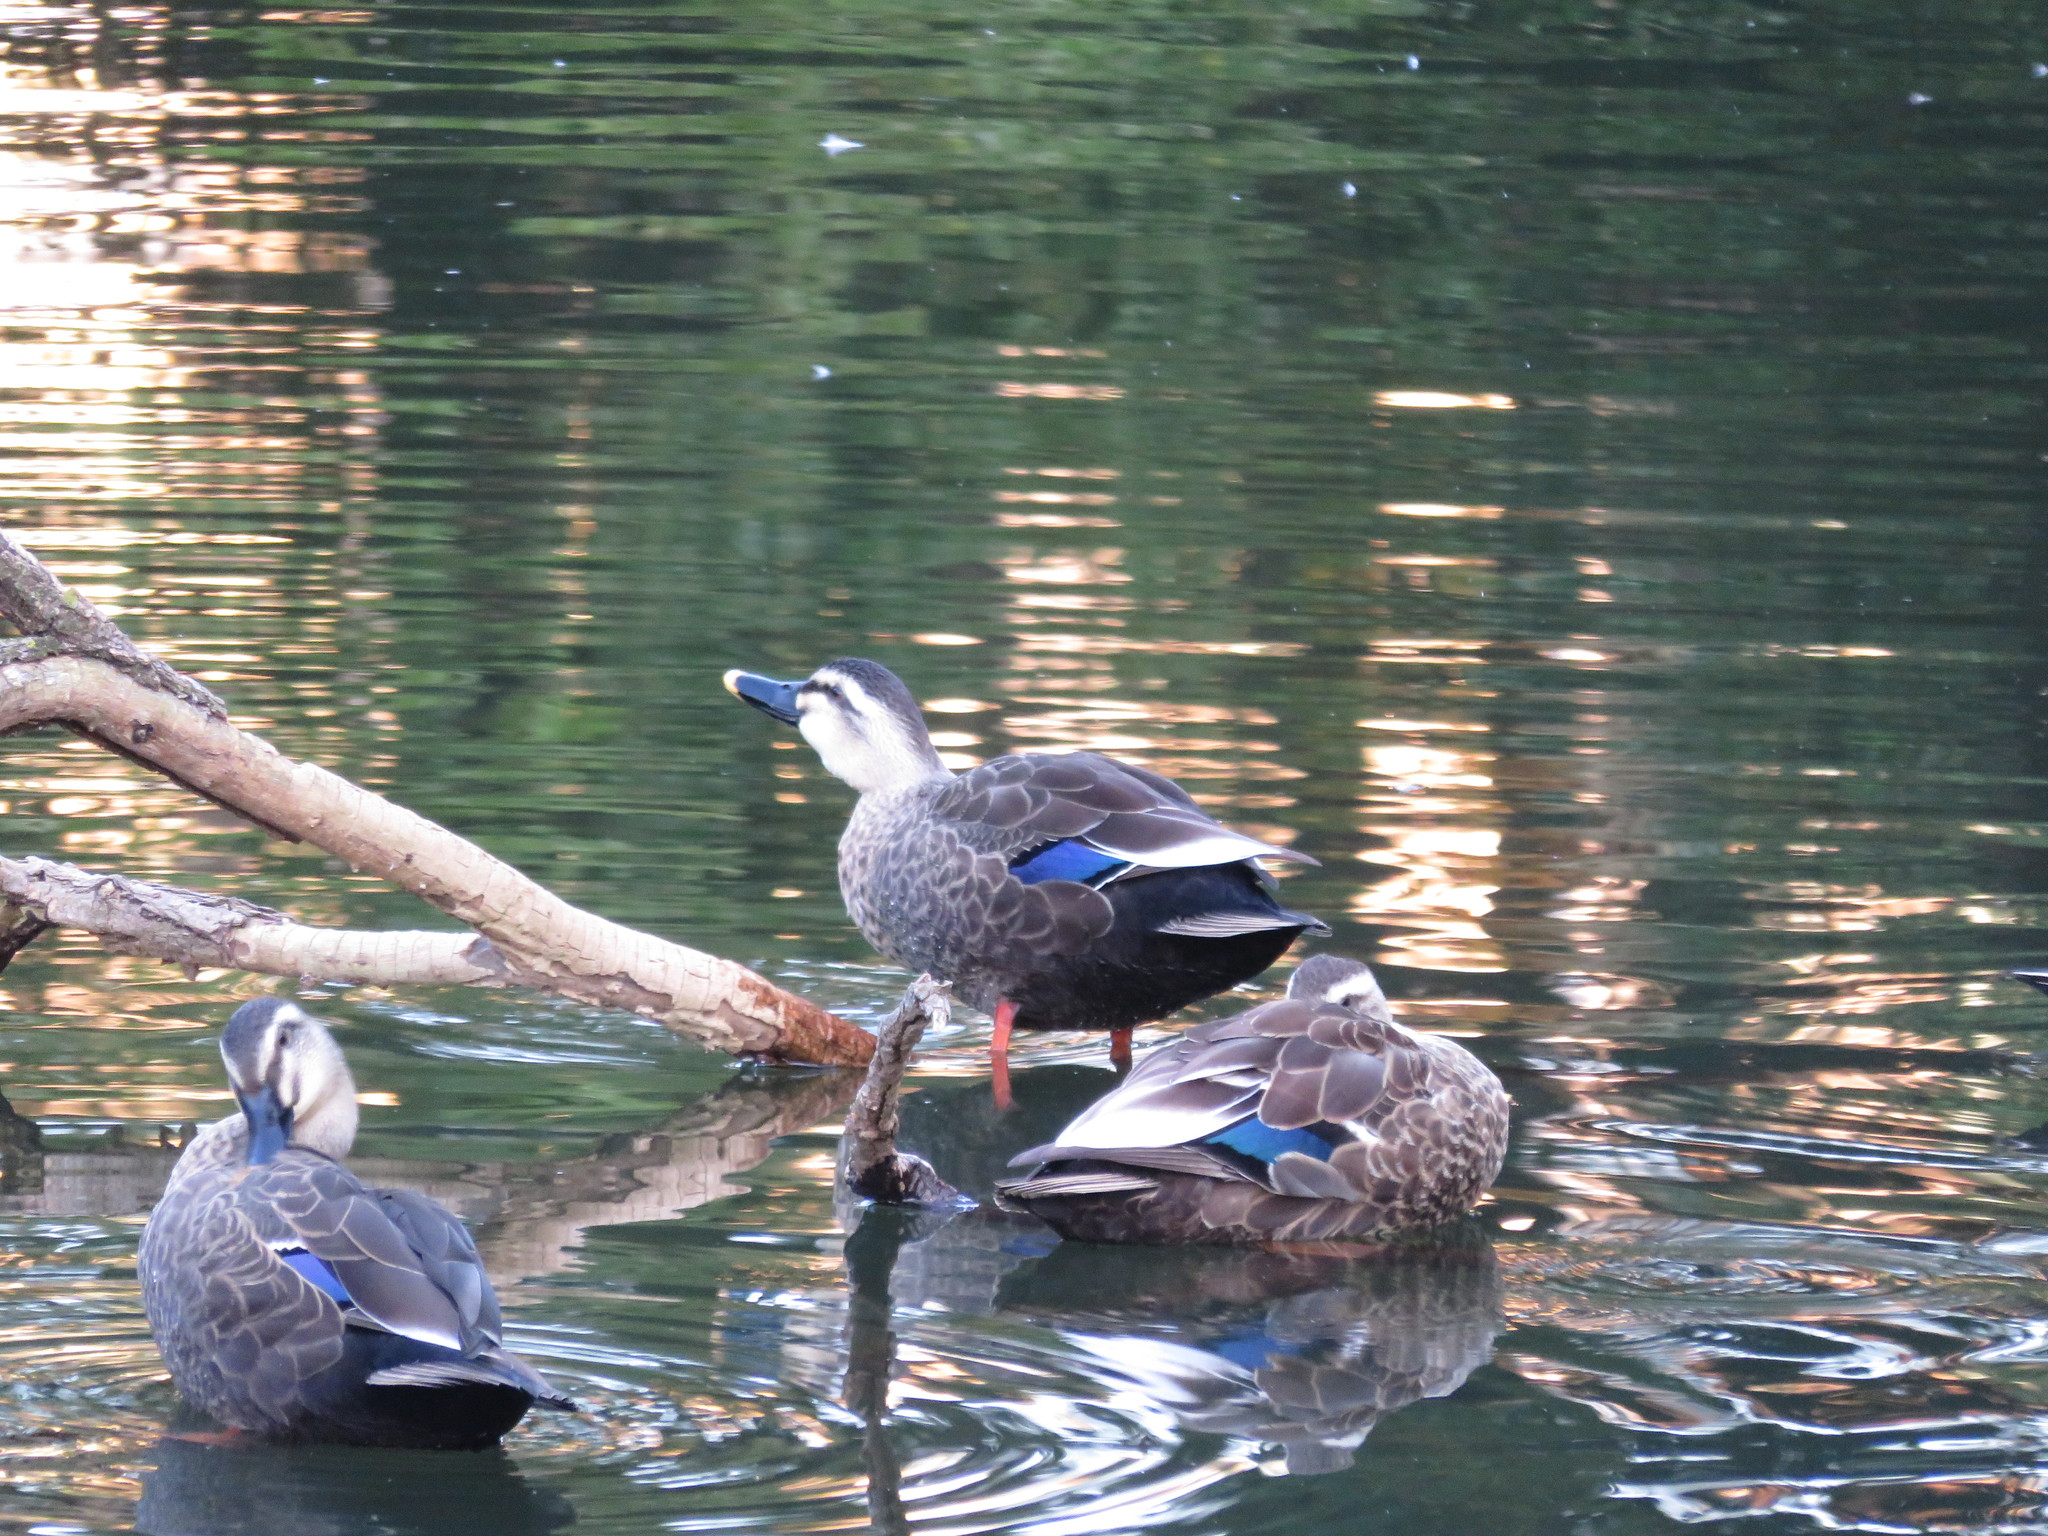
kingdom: Animalia
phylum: Chordata
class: Aves
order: Anseriformes
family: Anatidae
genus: Anas
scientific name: Anas zonorhyncha
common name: Eastern spot-billed duck
